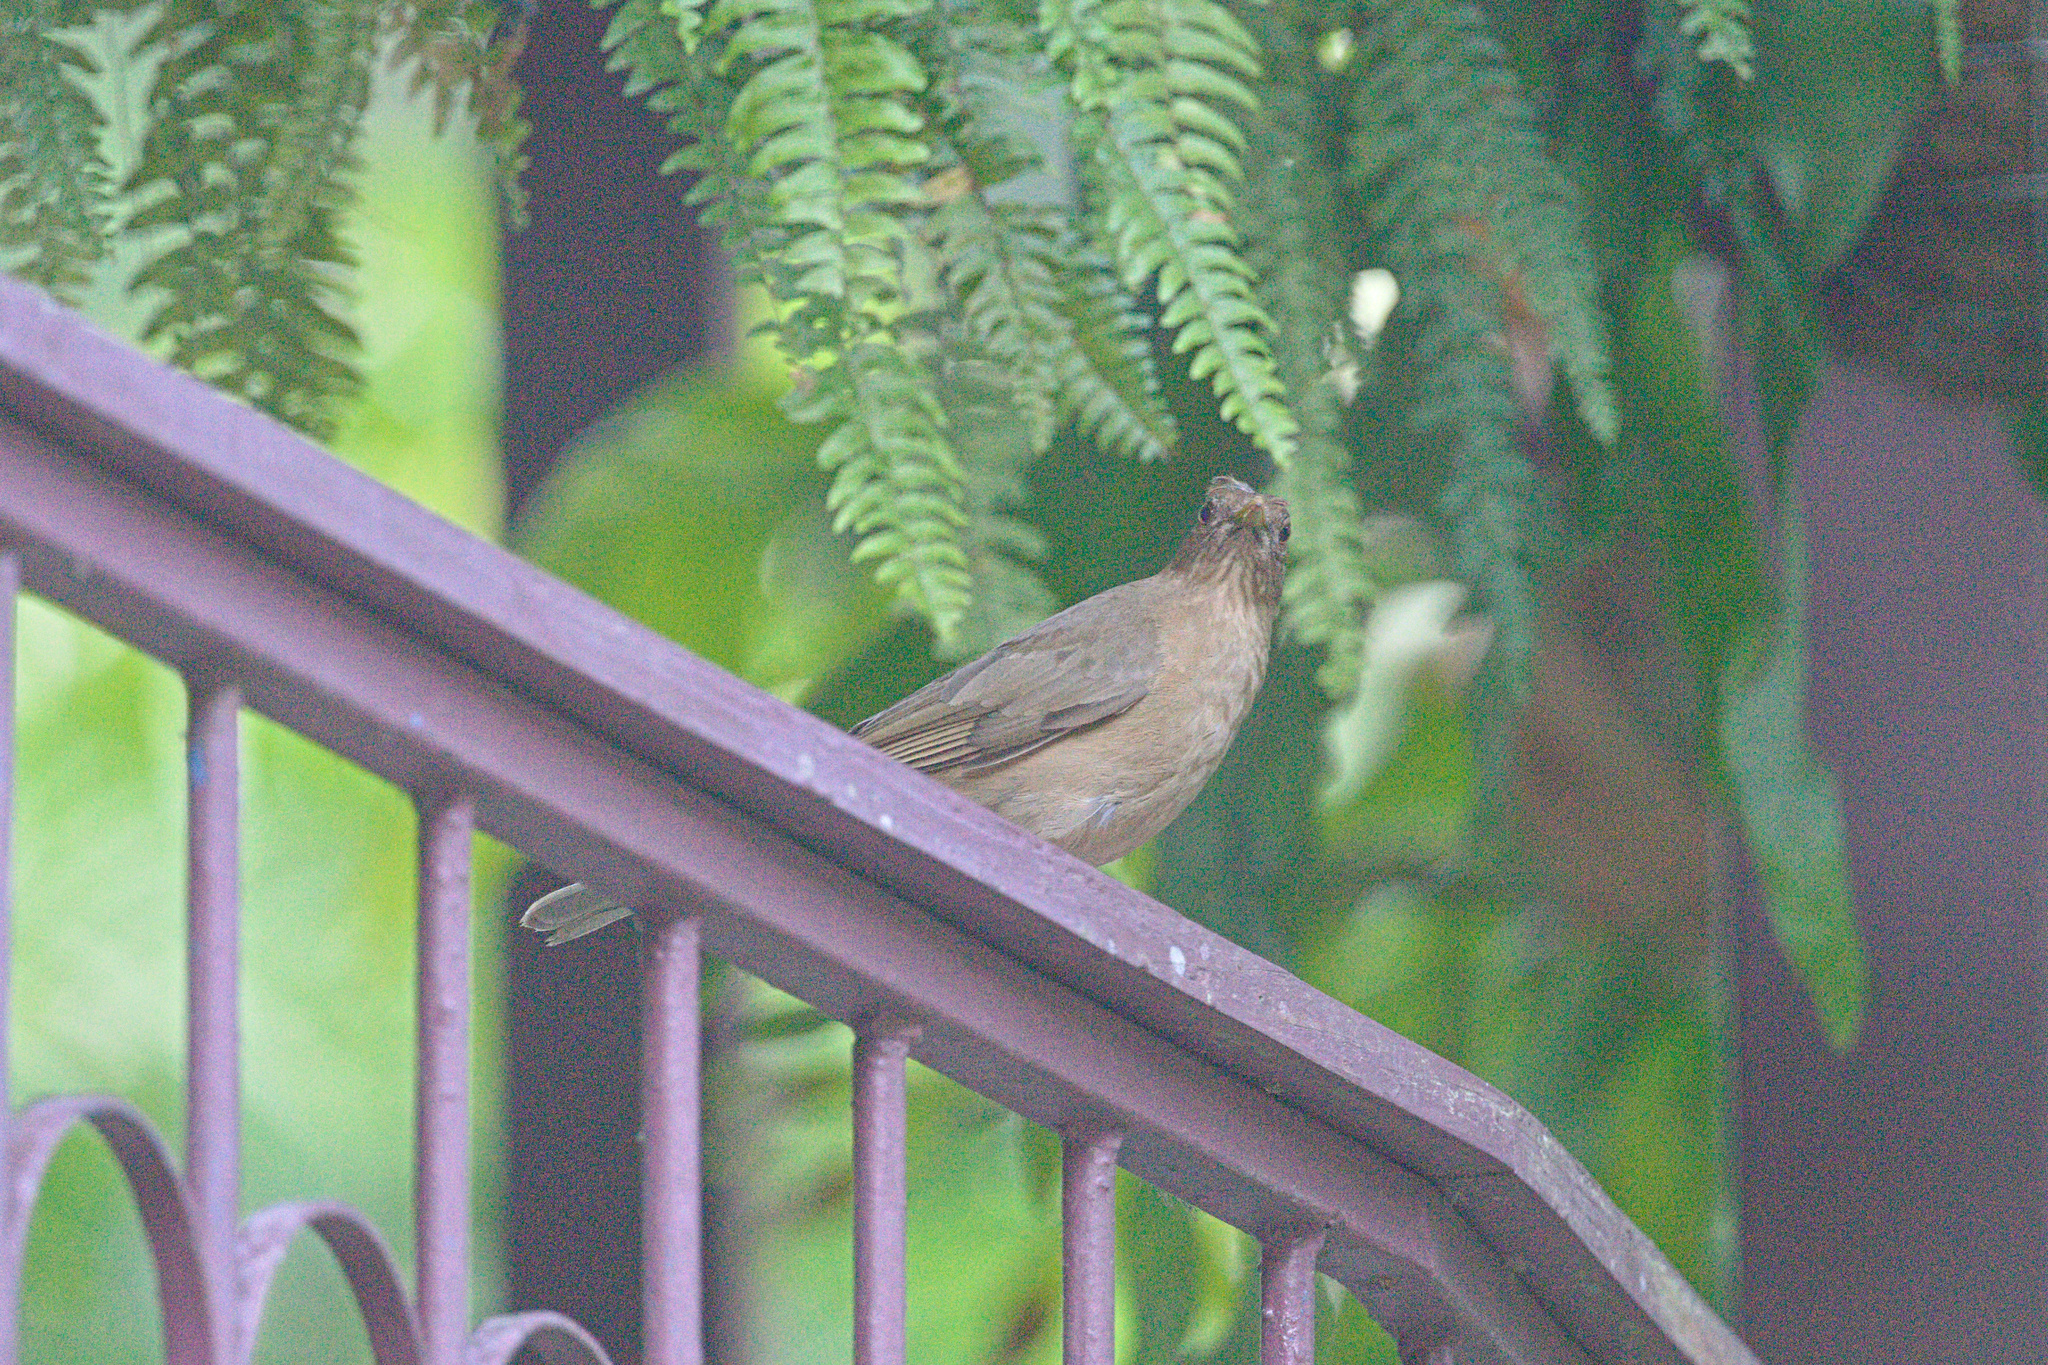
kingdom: Animalia
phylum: Chordata
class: Aves
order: Passeriformes
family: Turdidae
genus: Turdus
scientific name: Turdus grayi
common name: Clay-colored thrush
